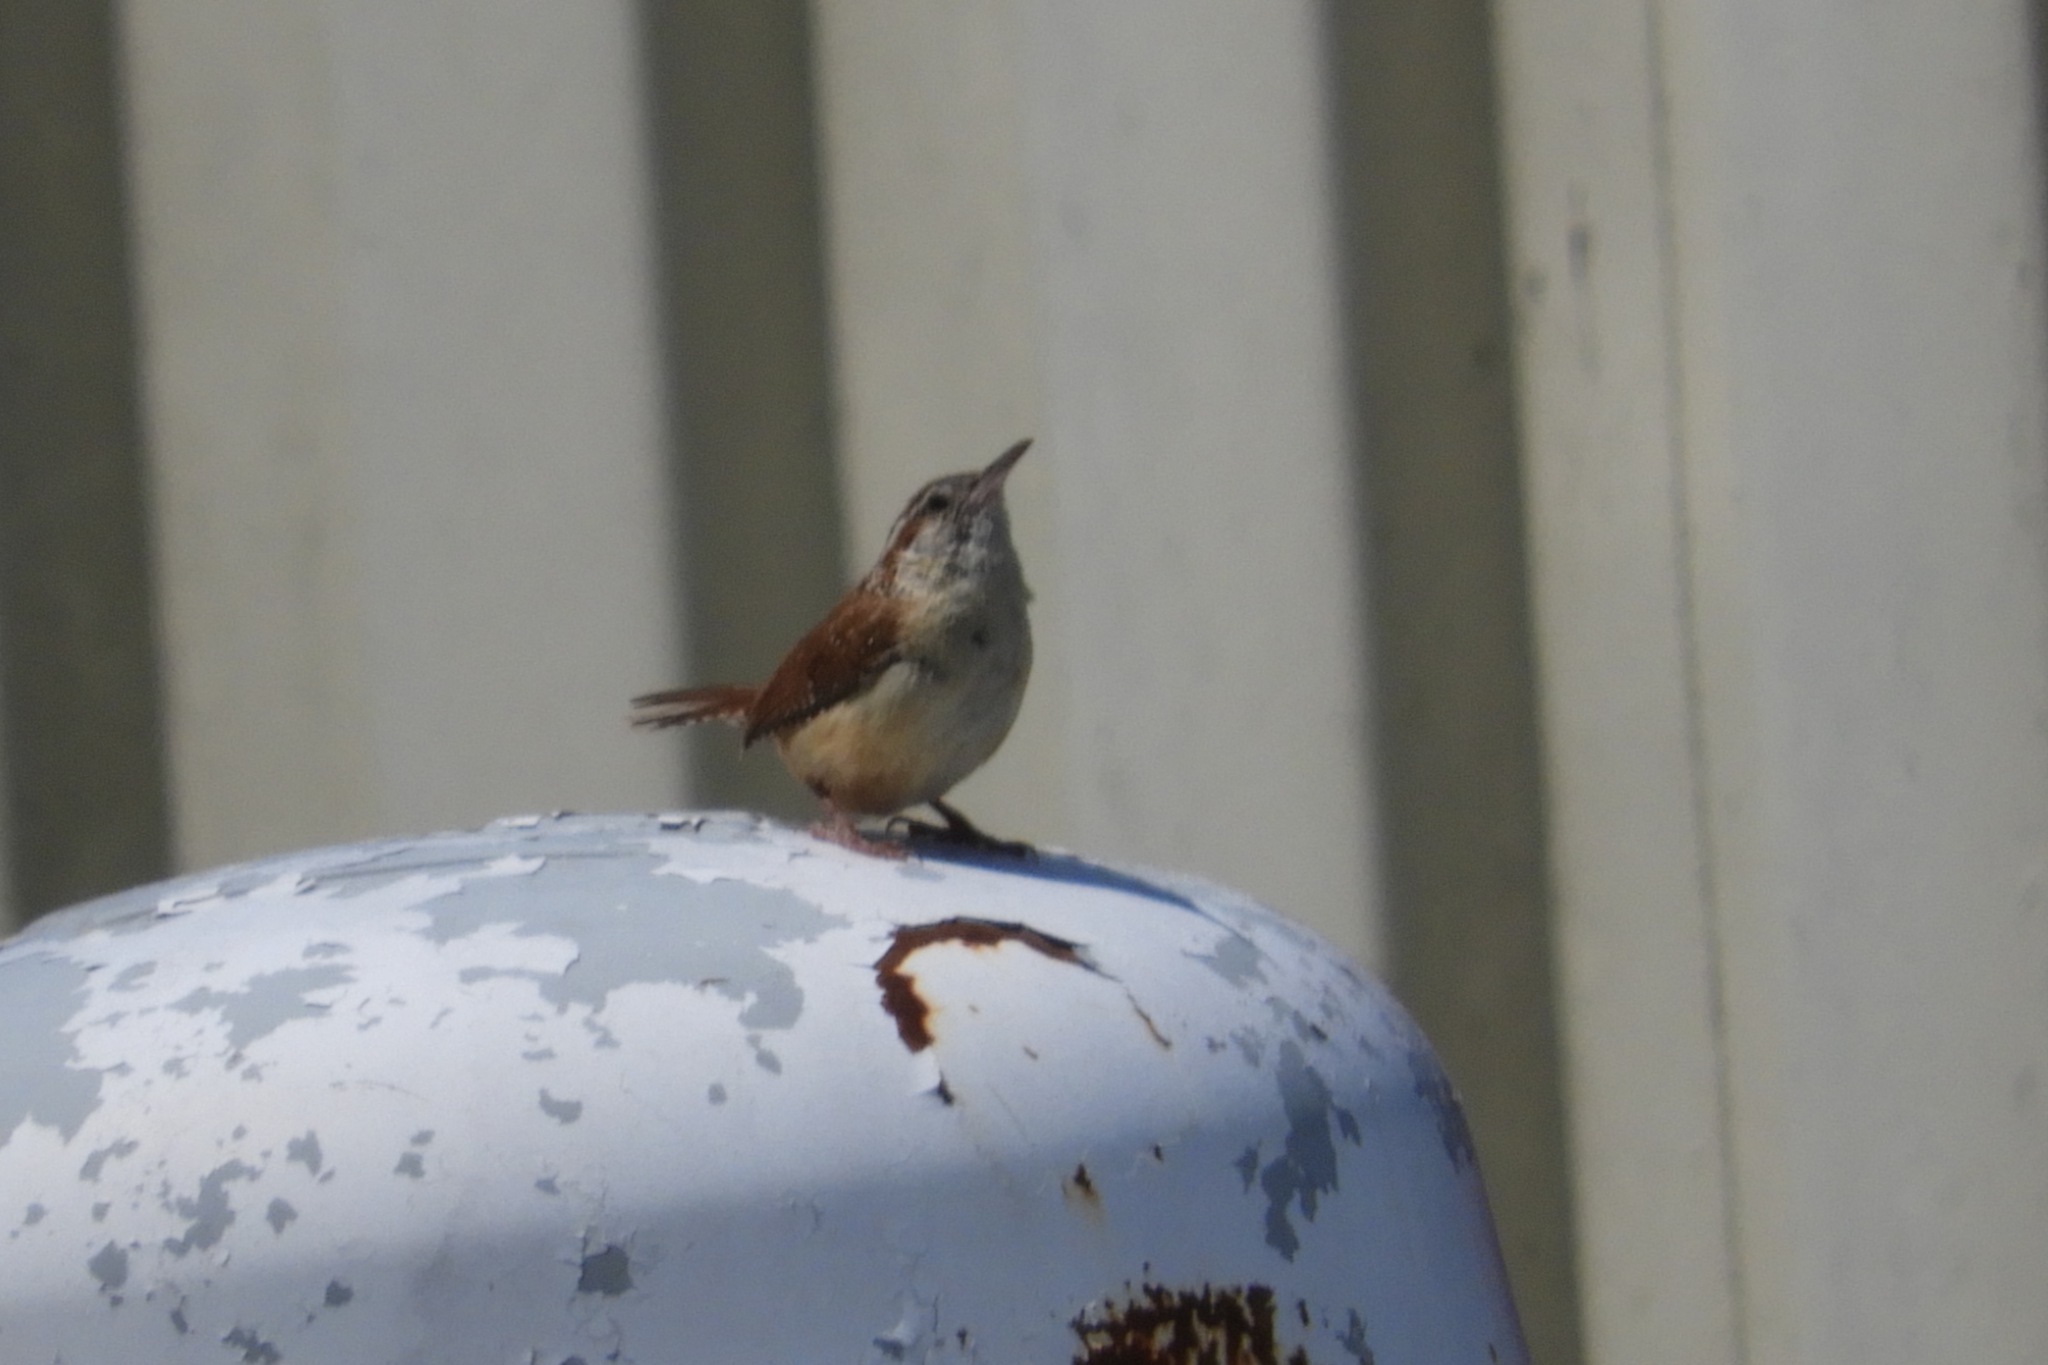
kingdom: Animalia
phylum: Chordata
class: Aves
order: Passeriformes
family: Troglodytidae
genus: Thryothorus
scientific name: Thryothorus ludovicianus
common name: Carolina wren
